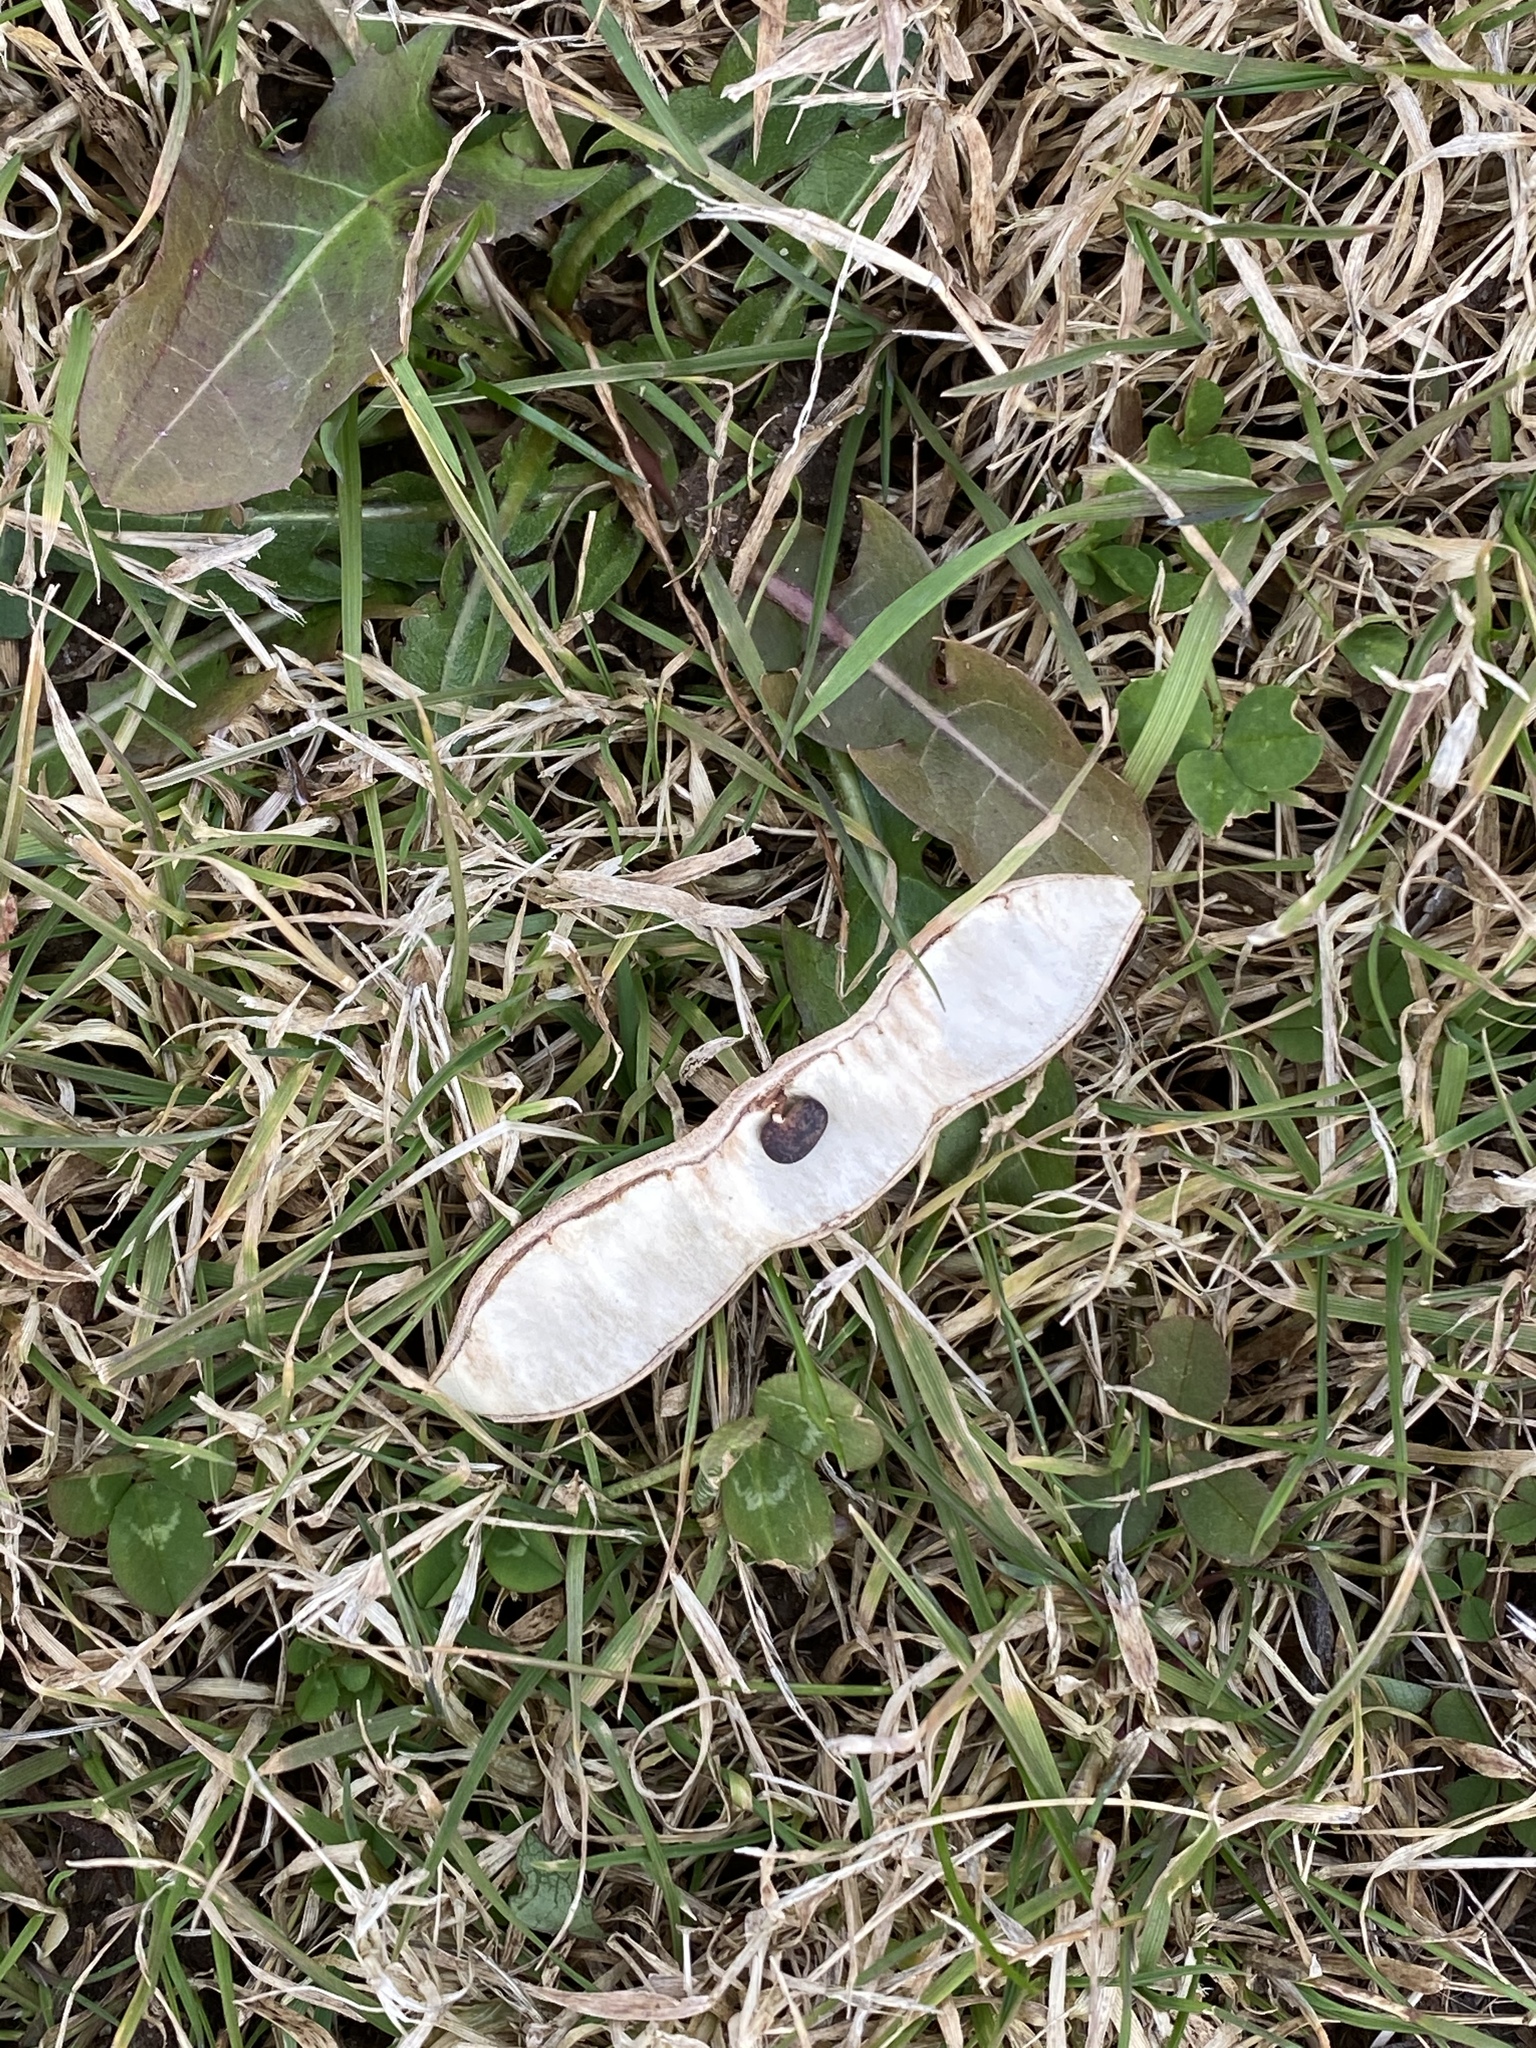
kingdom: Plantae
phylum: Tracheophyta
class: Magnoliopsida
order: Fabales
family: Fabaceae
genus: Robinia
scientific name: Robinia pseudoacacia
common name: Black locust
